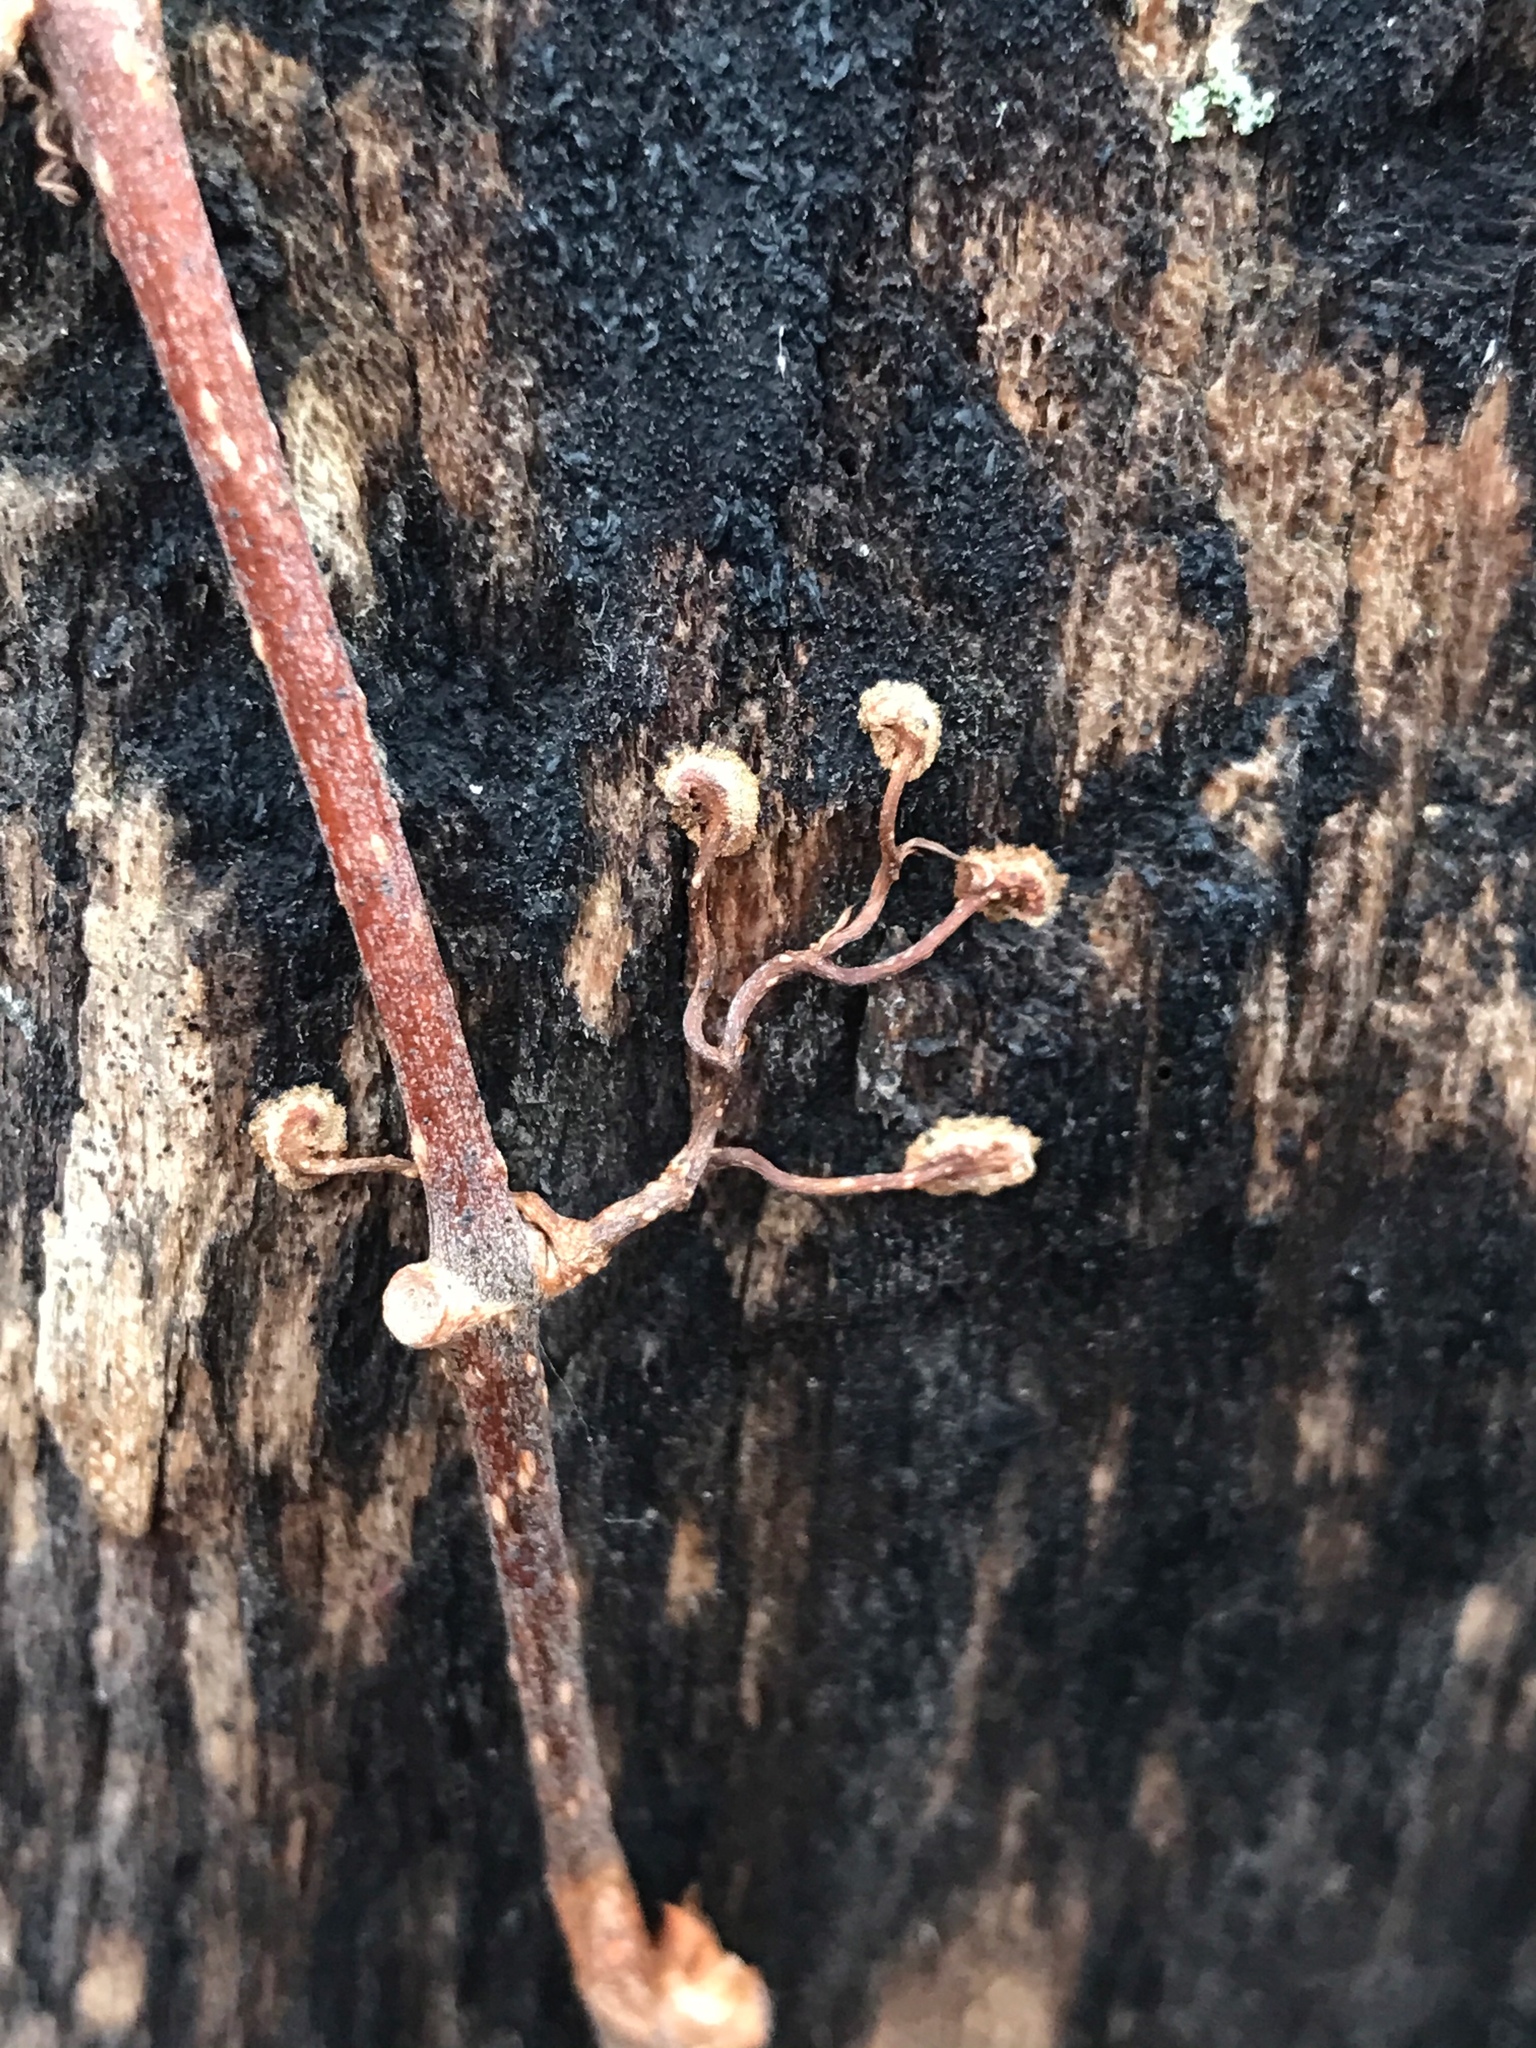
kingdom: Plantae
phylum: Tracheophyta
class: Magnoliopsida
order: Vitales
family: Vitaceae
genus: Parthenocissus
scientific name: Parthenocissus quinquefolia
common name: Virginia-creeper
